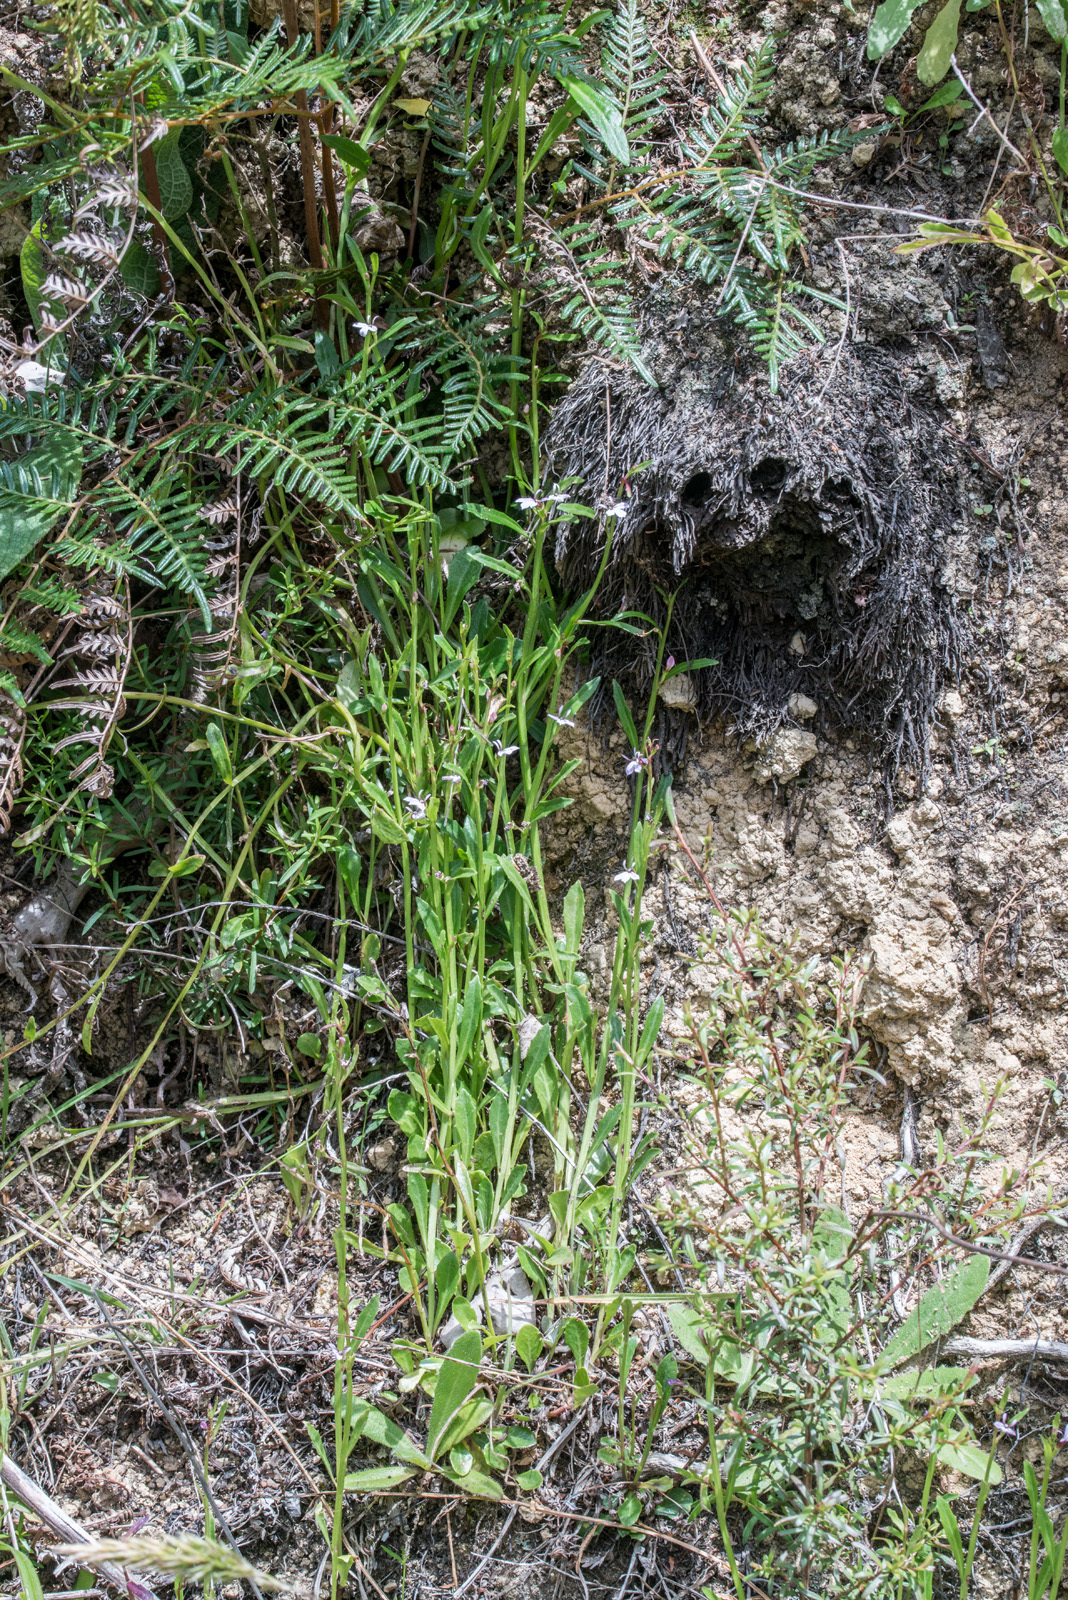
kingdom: Plantae
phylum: Tracheophyta
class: Magnoliopsida
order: Asterales
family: Campanulaceae
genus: Lobelia
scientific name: Lobelia anceps
